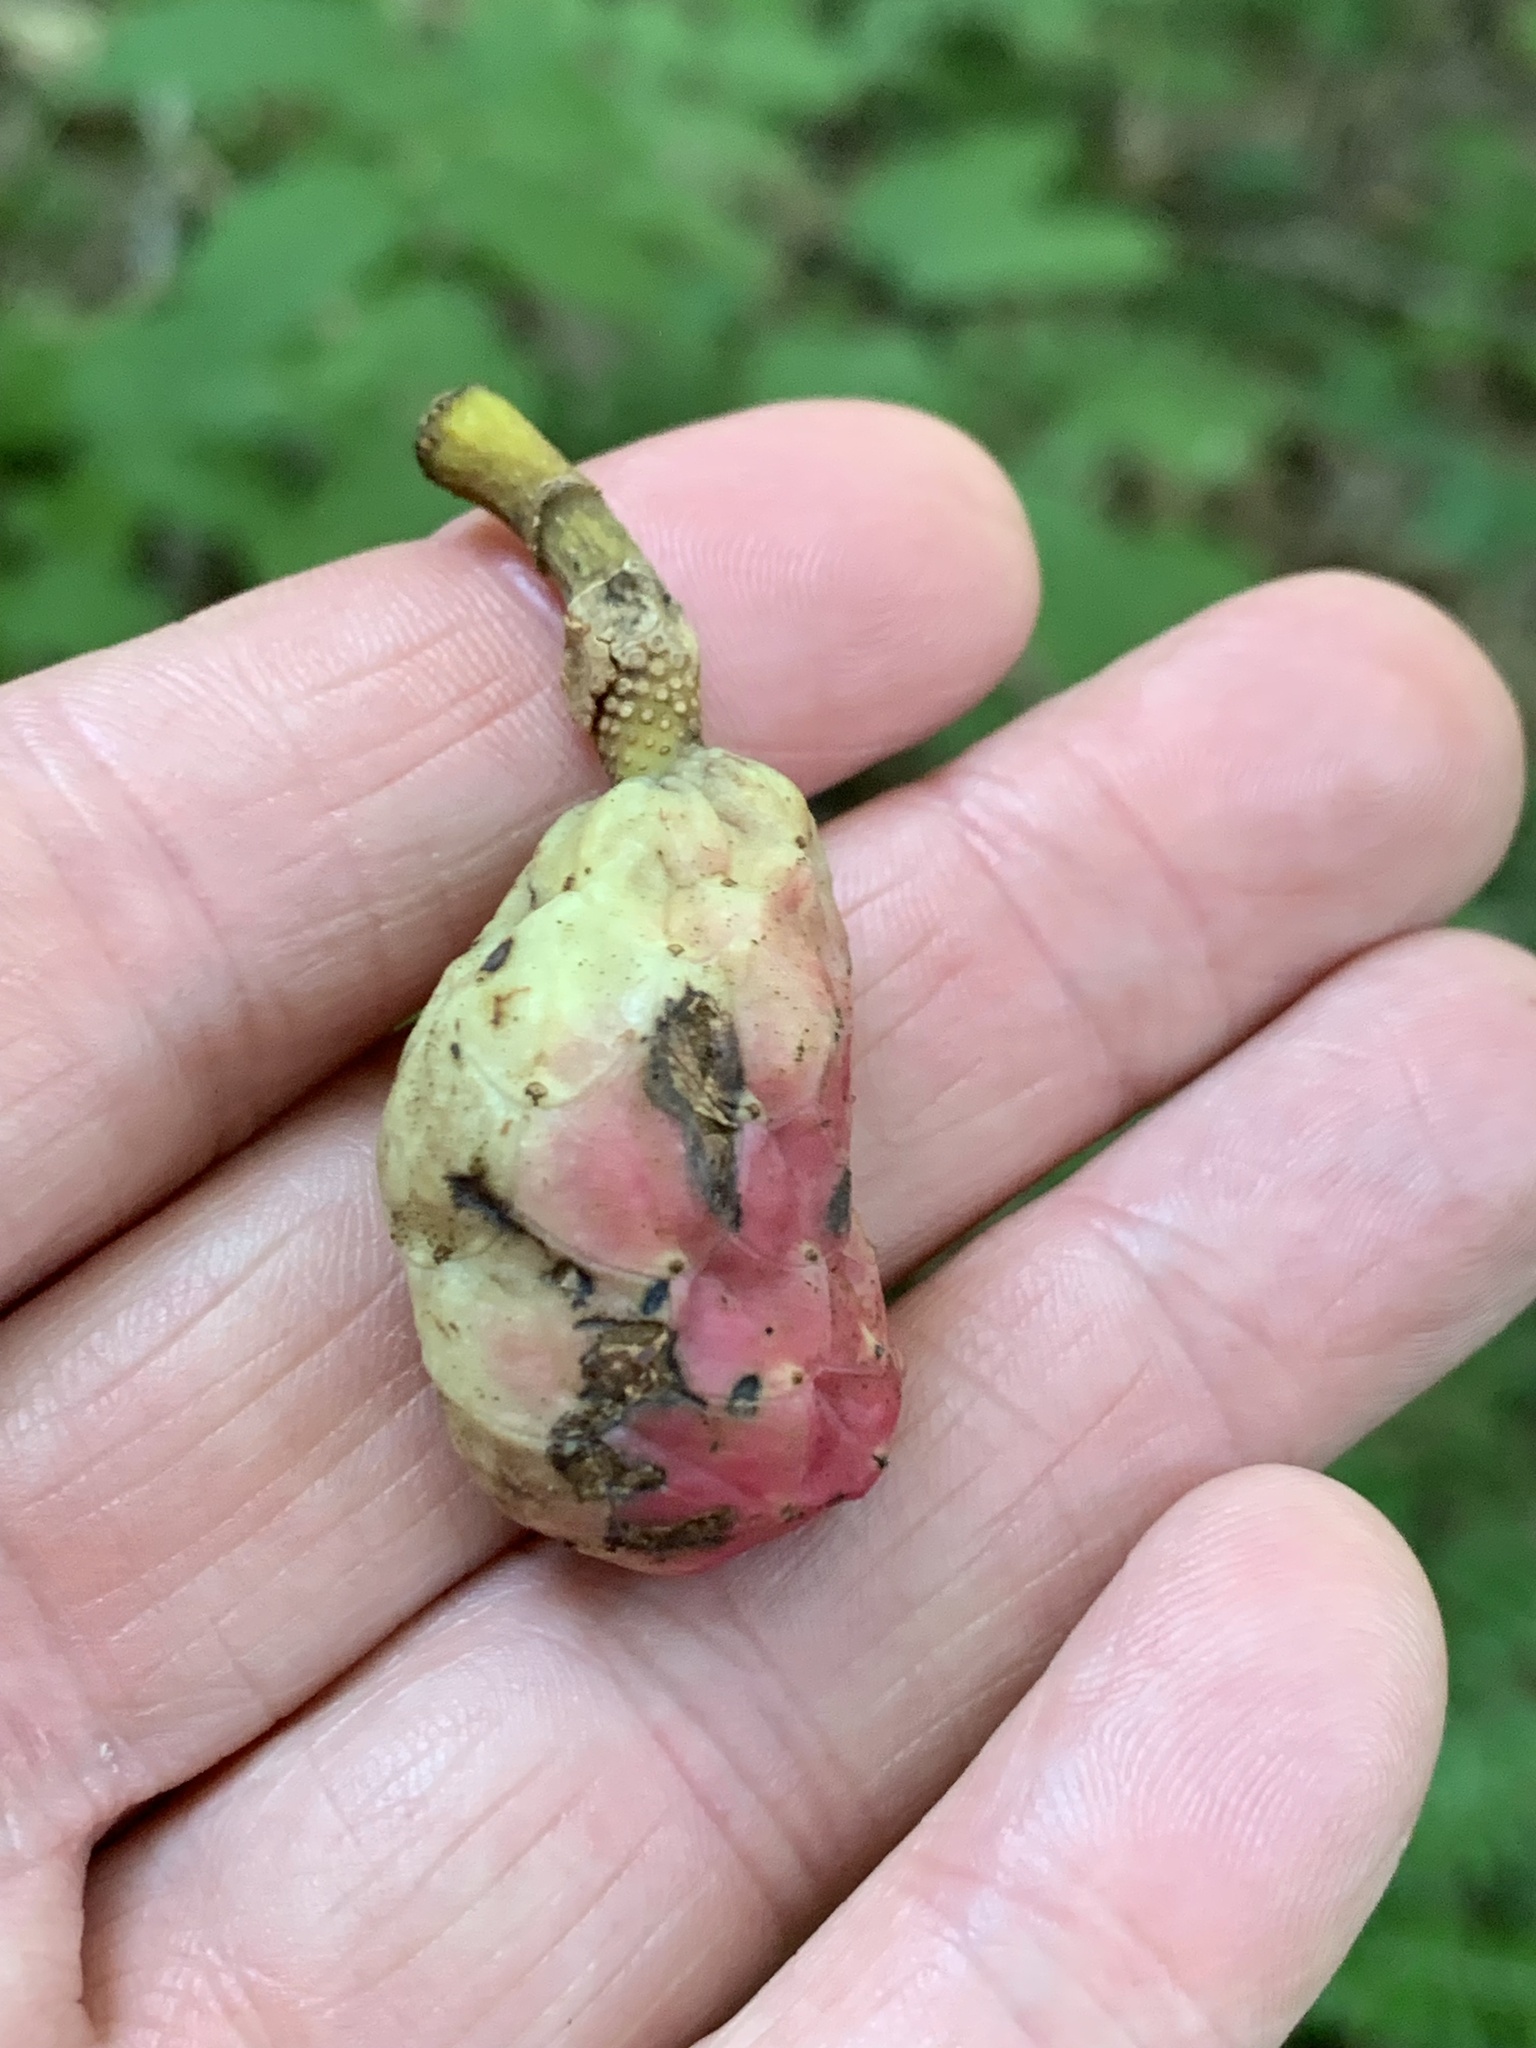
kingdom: Plantae
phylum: Tracheophyta
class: Magnoliopsida
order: Magnoliales
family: Magnoliaceae
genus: Magnolia
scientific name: Magnolia acuminata
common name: Cucumber magnolia
